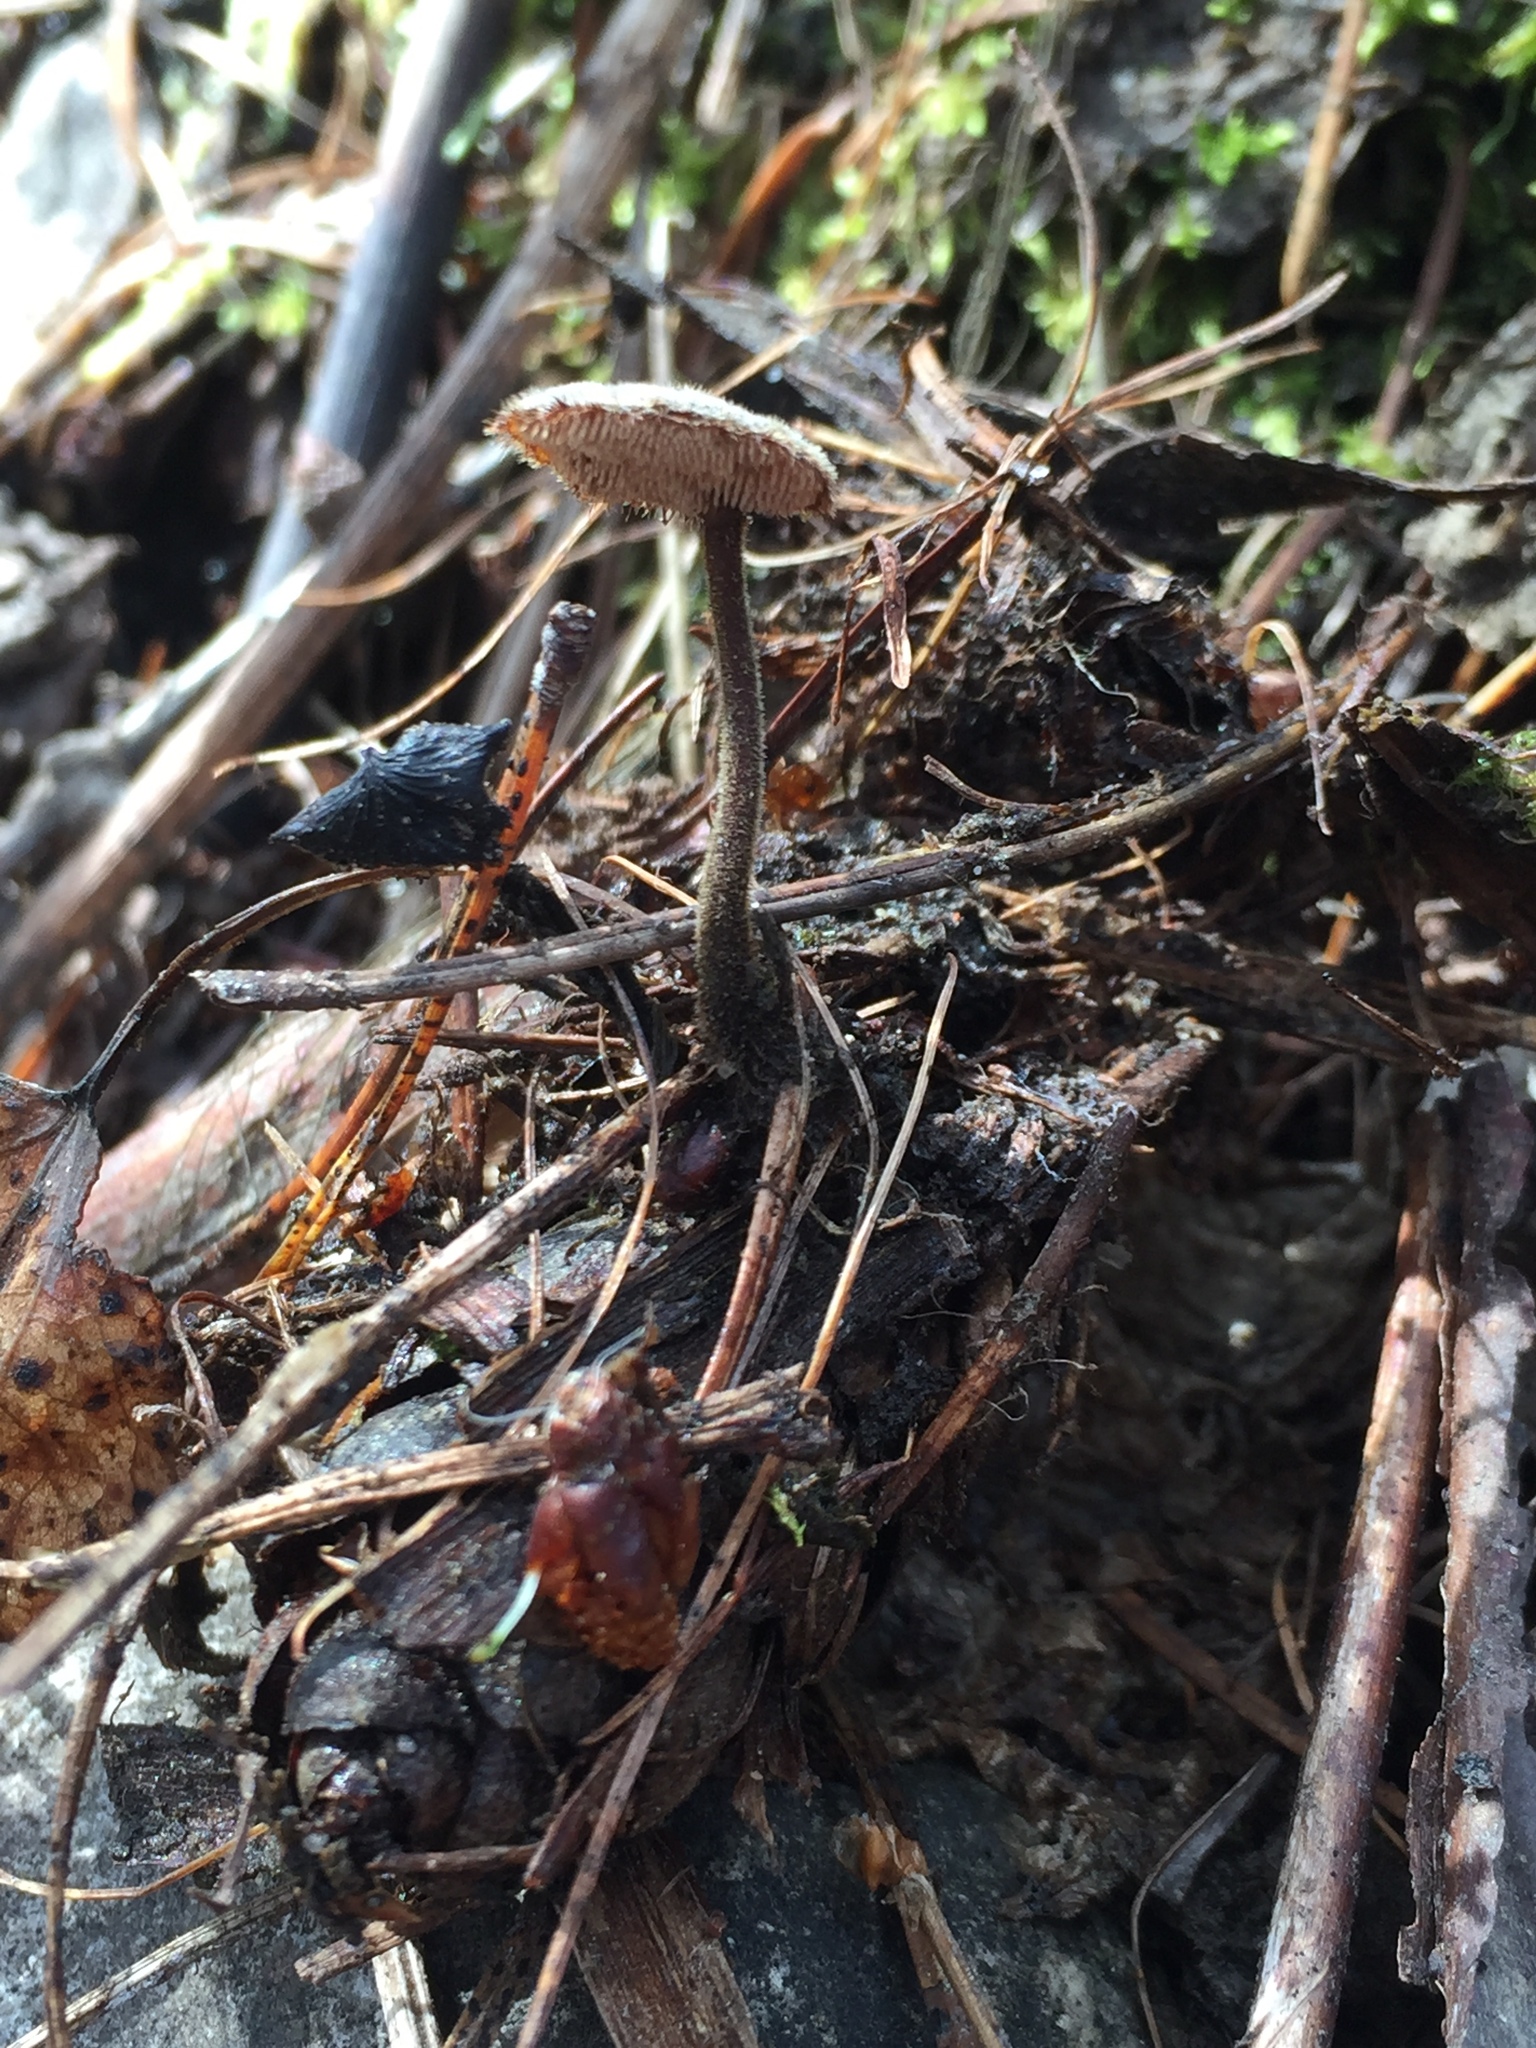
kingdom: Fungi
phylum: Basidiomycota
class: Agaricomycetes
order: Russulales
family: Auriscalpiaceae
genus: Auriscalpium
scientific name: Auriscalpium vulgare
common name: Earpick fungus
